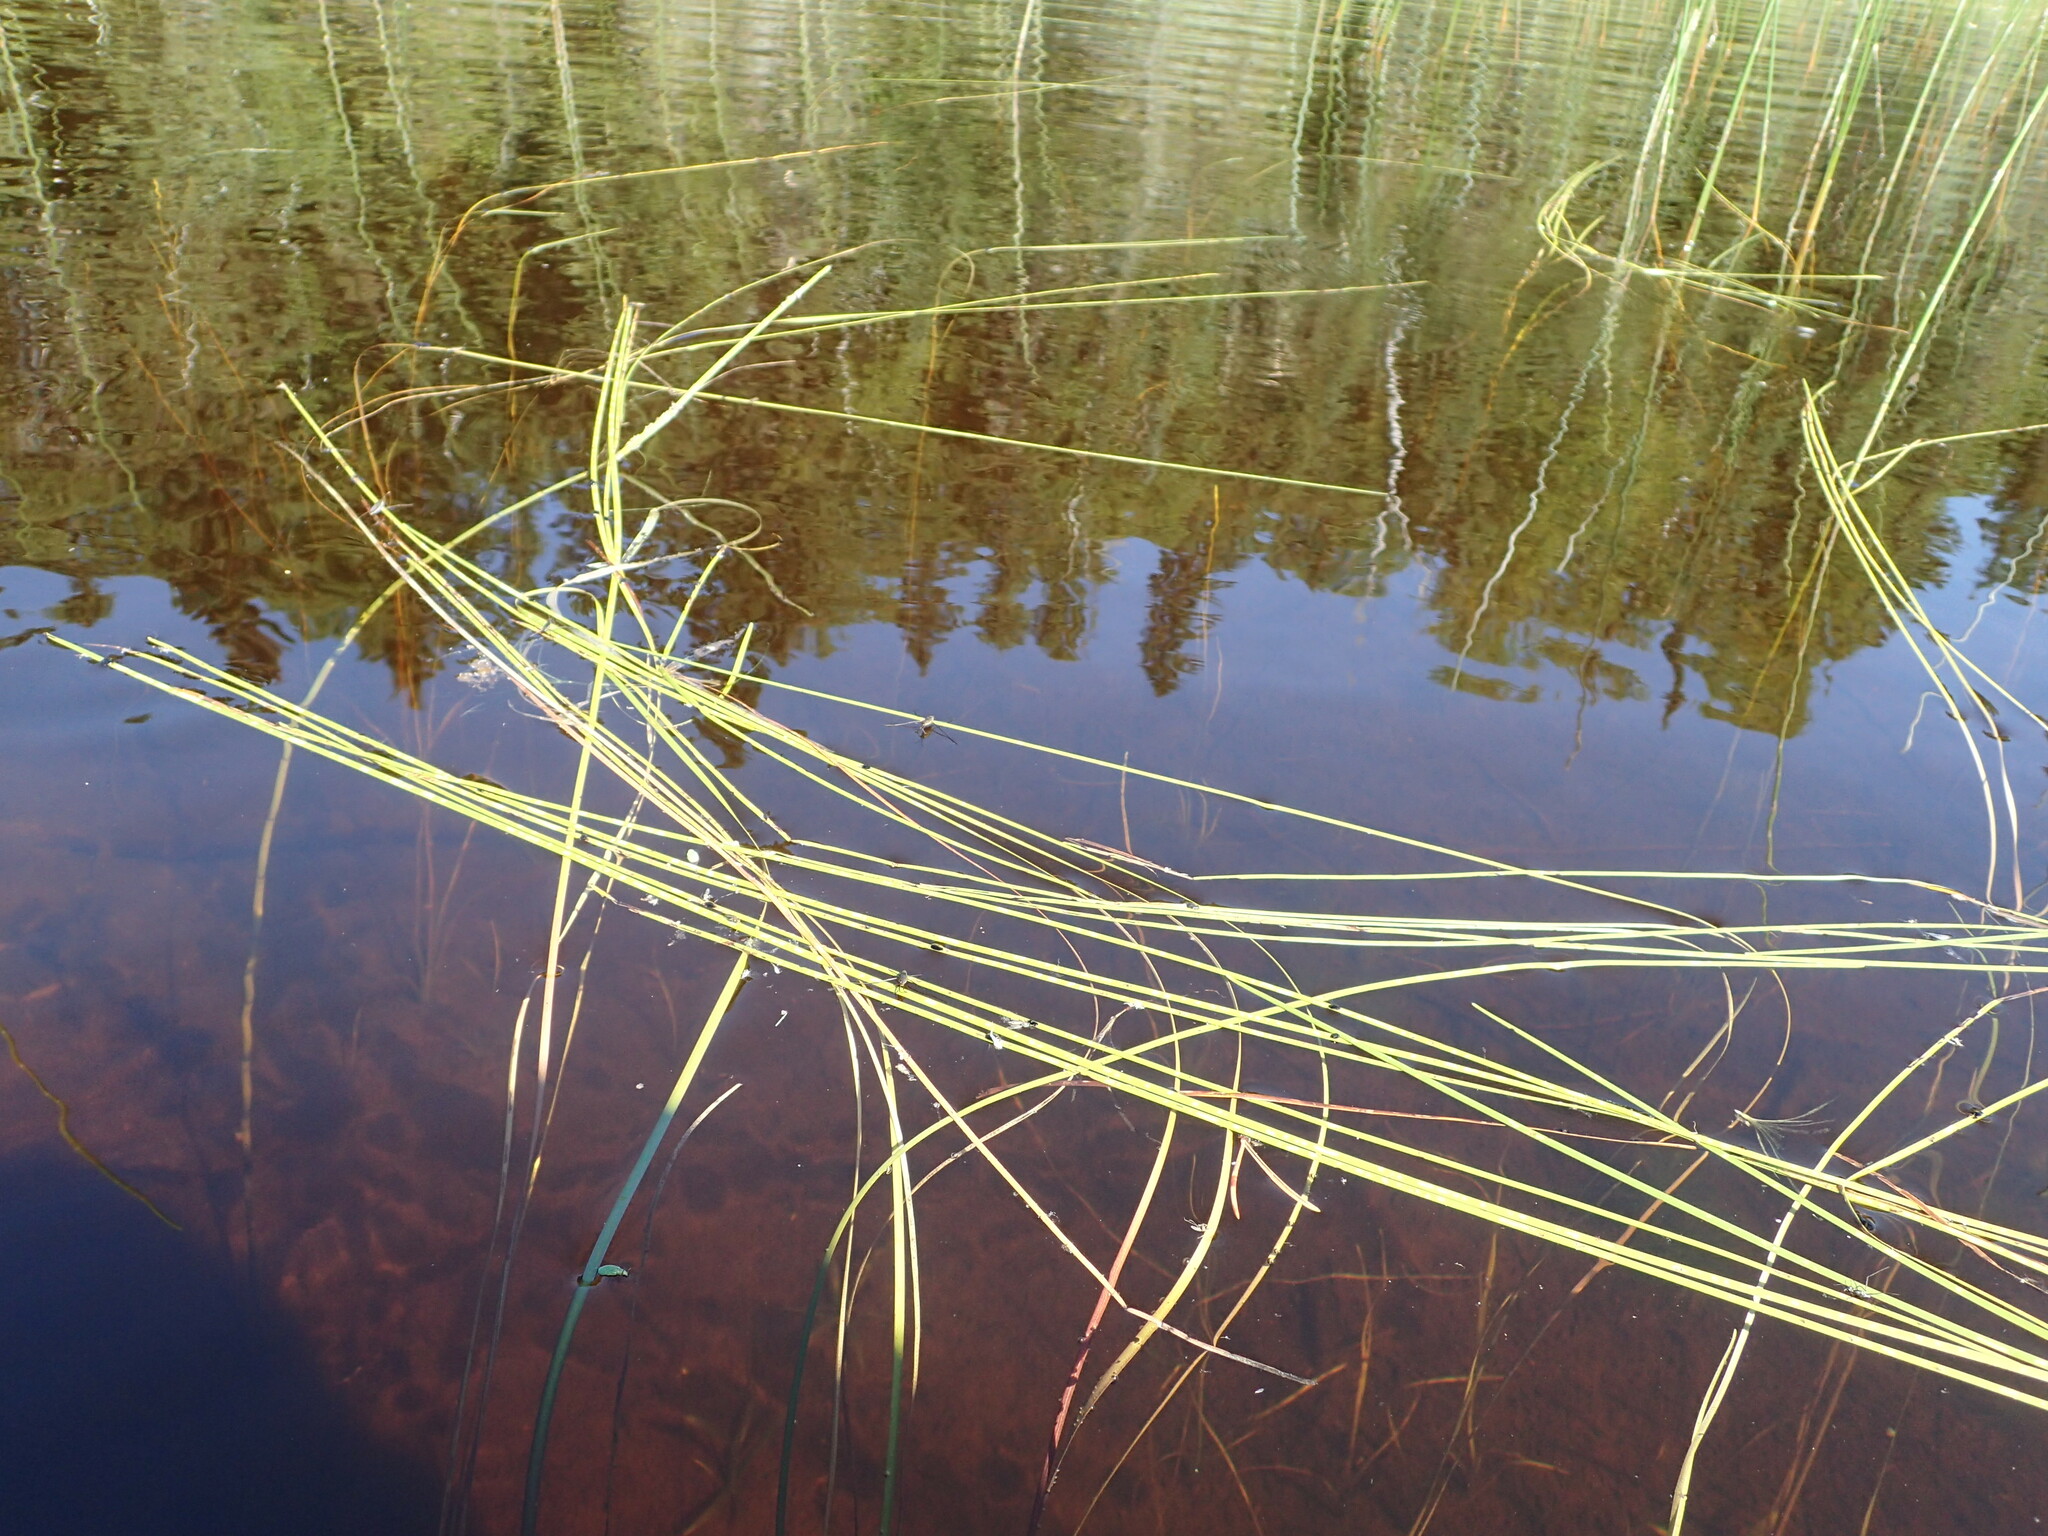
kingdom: Plantae
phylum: Tracheophyta
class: Liliopsida
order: Poales
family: Typhaceae
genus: Sparganium
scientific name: Sparganium angustifolium
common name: Floating bur-reed
